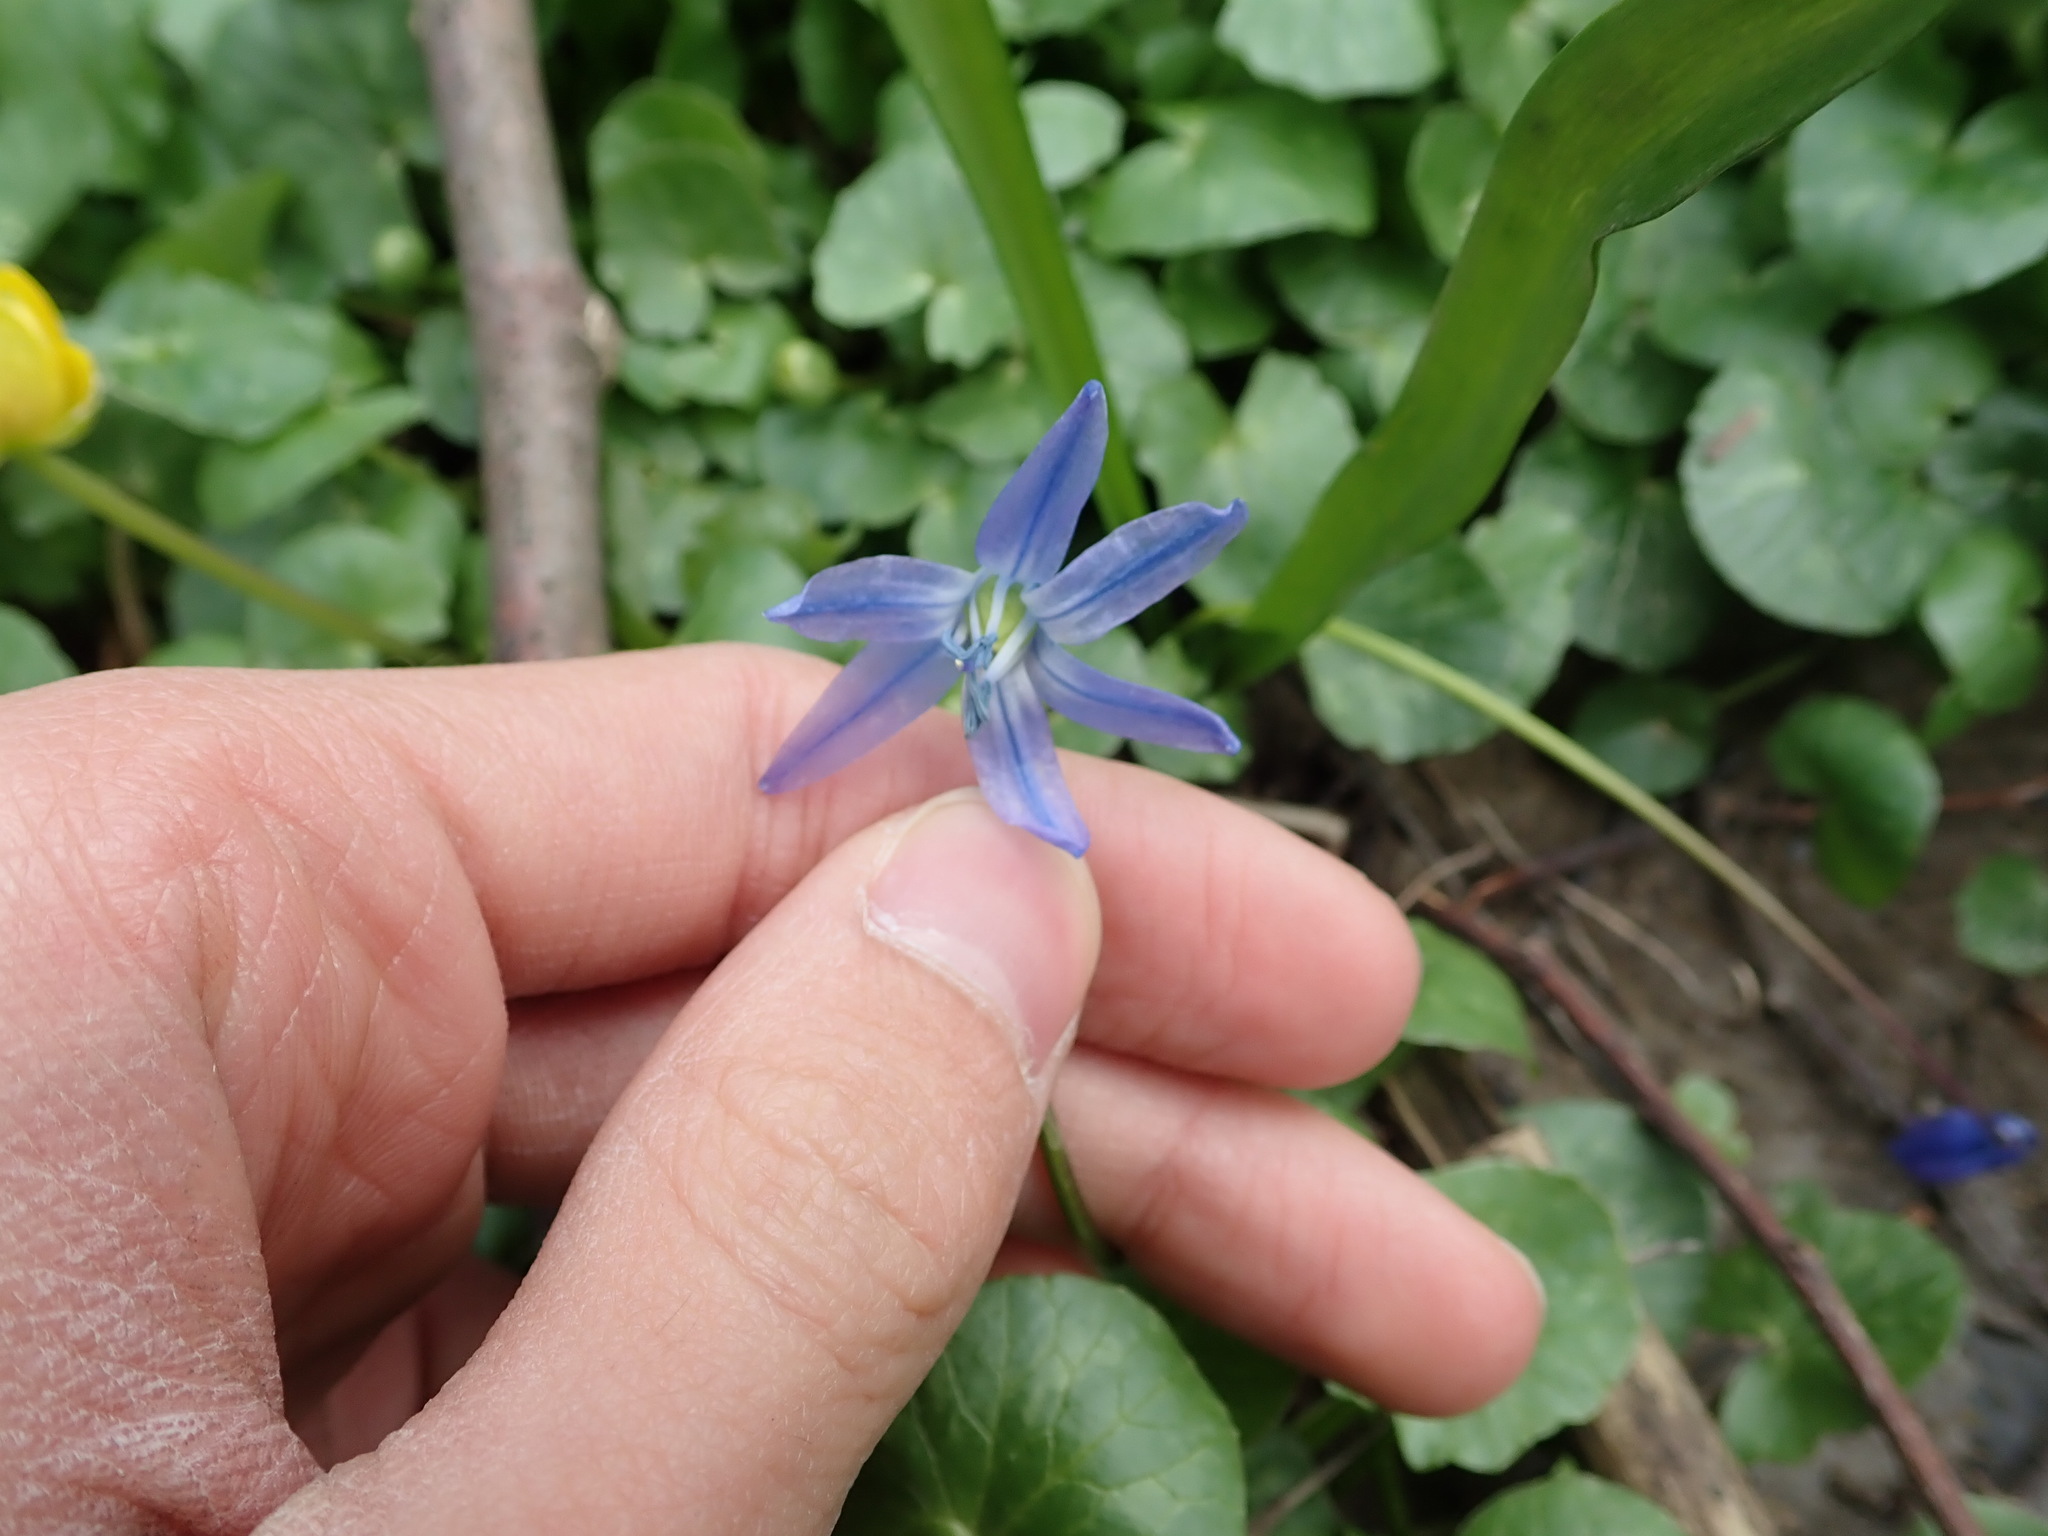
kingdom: Plantae
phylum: Tracheophyta
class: Liliopsida
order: Asparagales
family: Asparagaceae
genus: Scilla
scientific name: Scilla siberica
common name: Siberian squill
